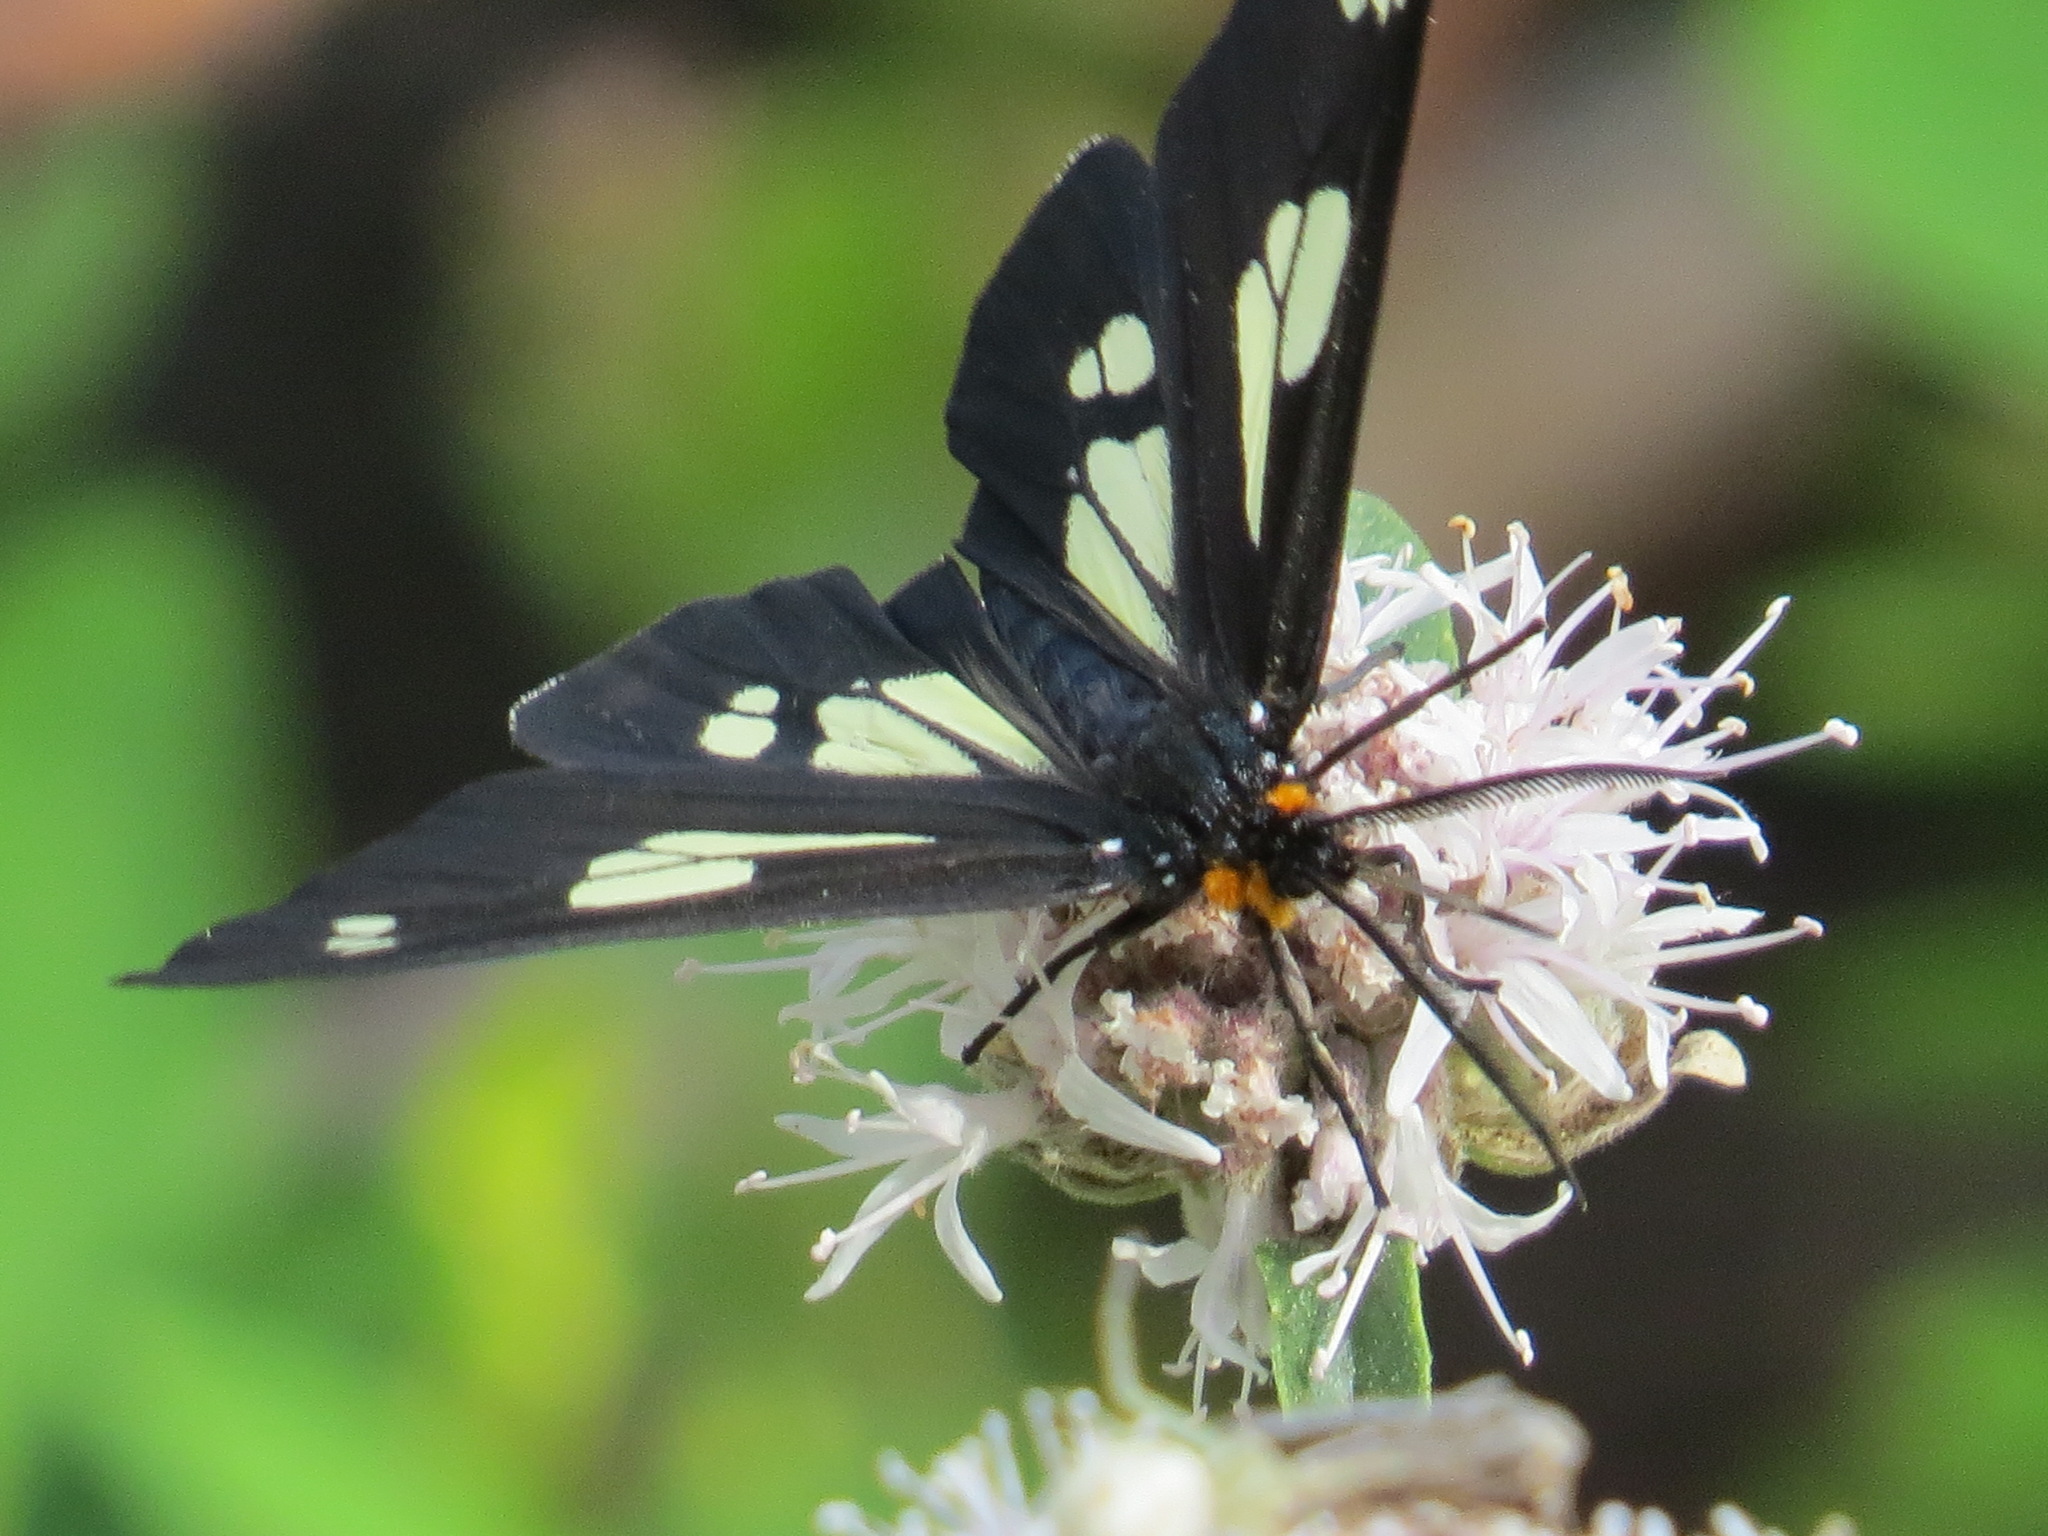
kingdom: Animalia
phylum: Arthropoda
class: Insecta
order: Lepidoptera
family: Erebidae
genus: Gnophaela
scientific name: Gnophaela latipennis
